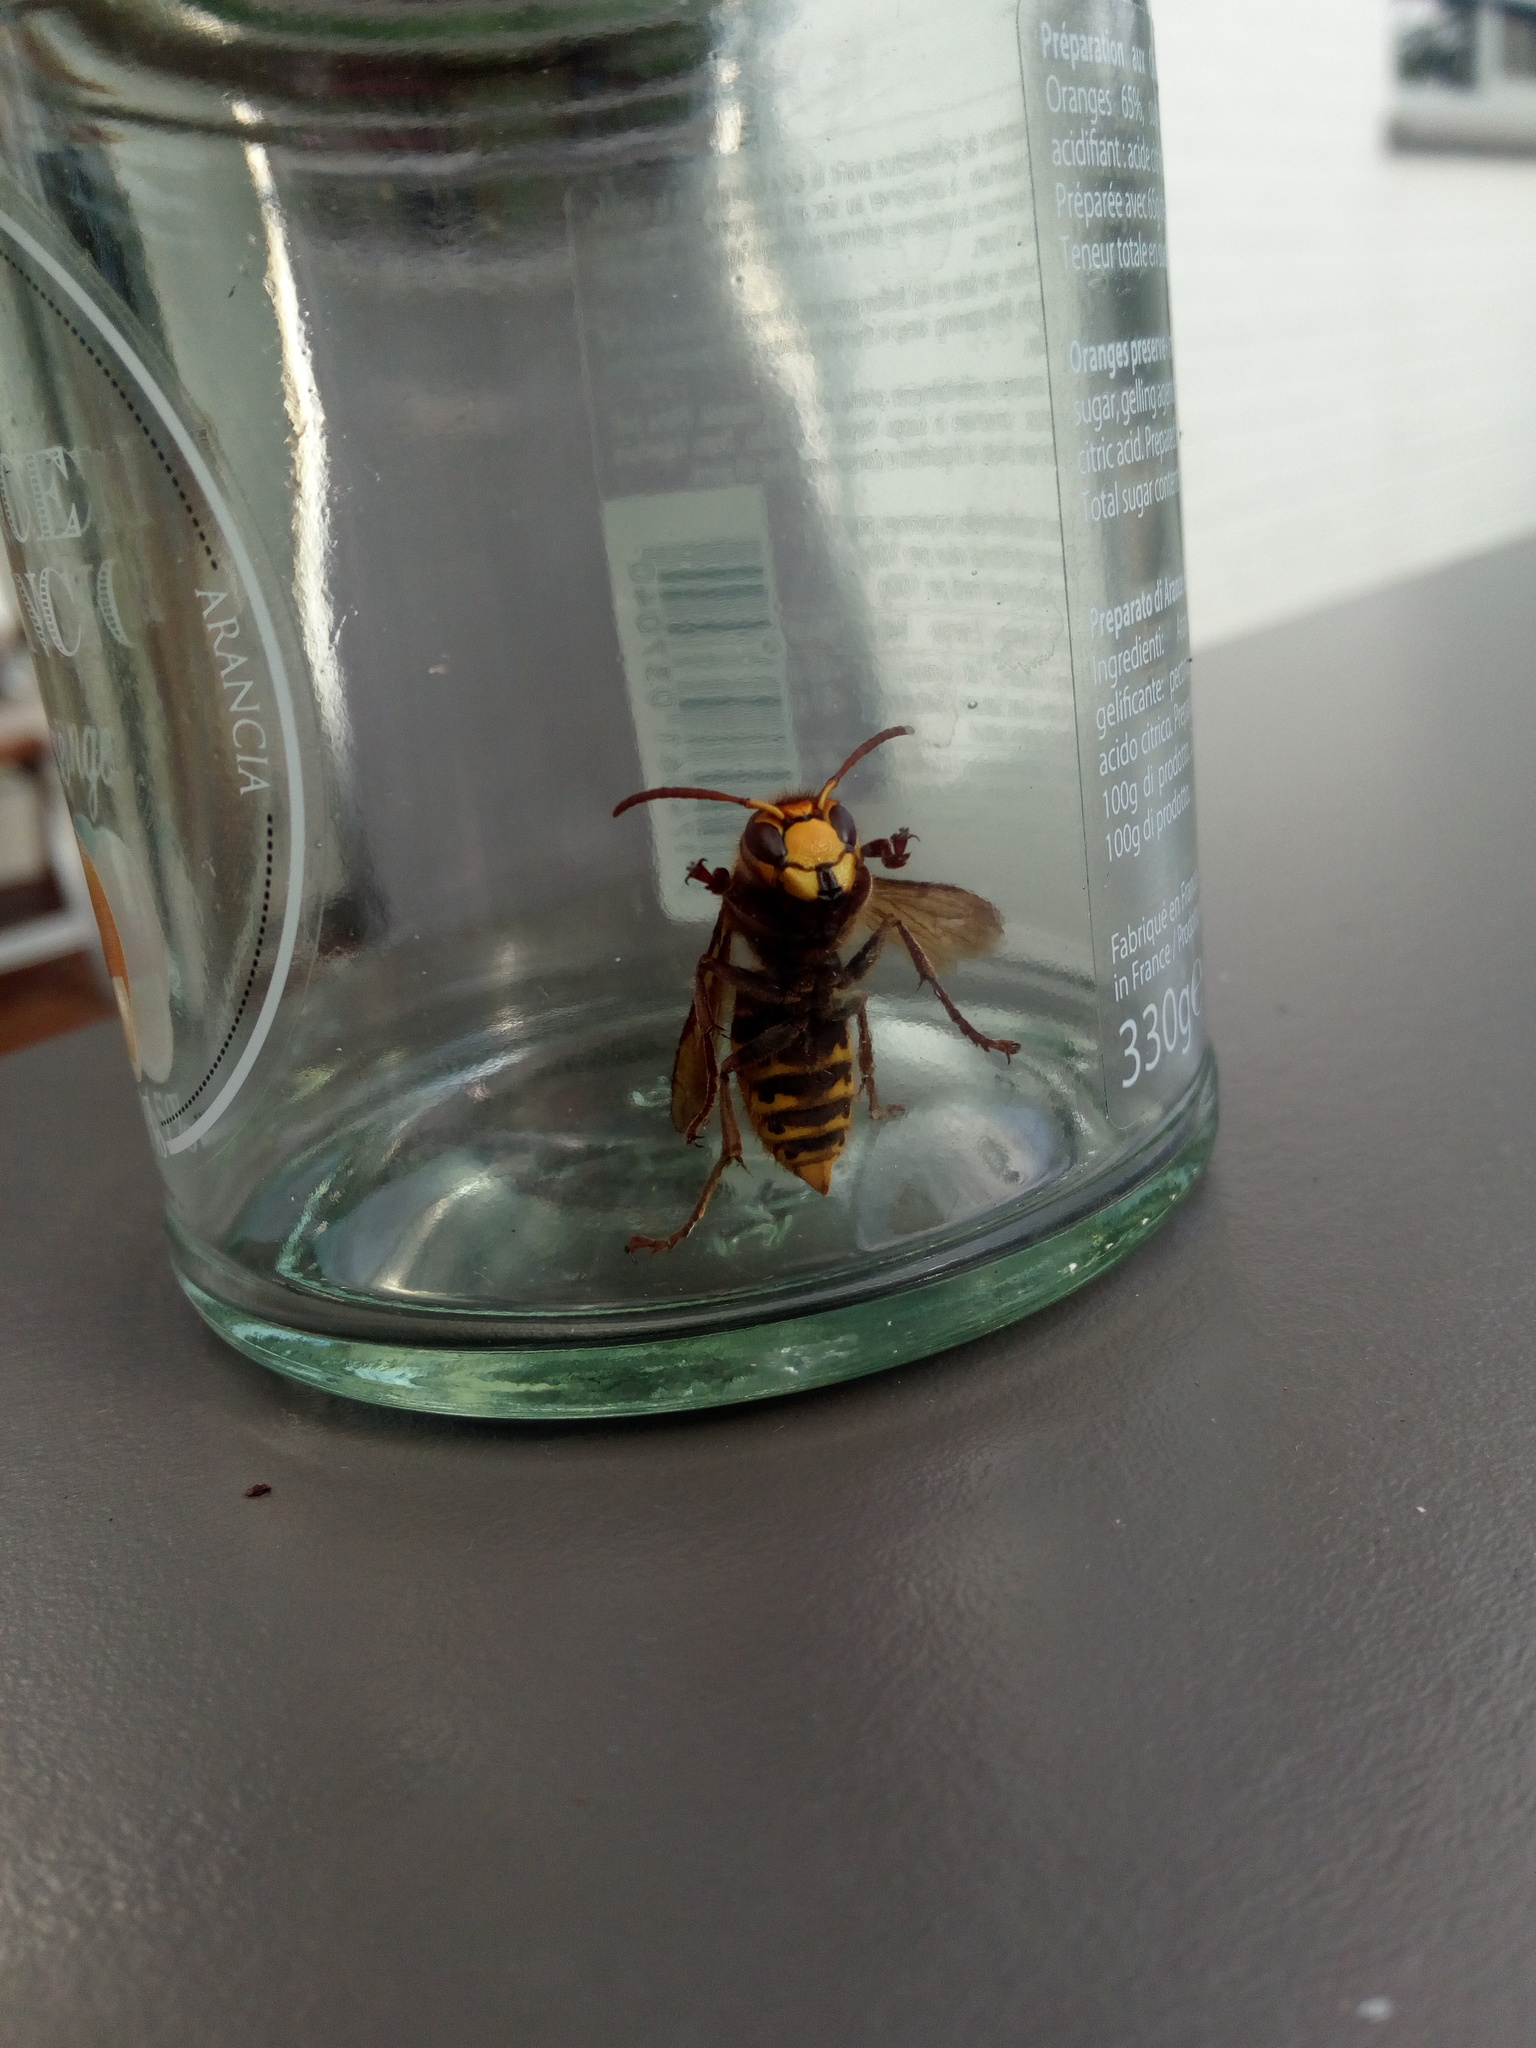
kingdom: Animalia
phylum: Arthropoda
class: Insecta
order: Hymenoptera
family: Vespidae
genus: Vespa
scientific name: Vespa crabro
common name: Hornet
